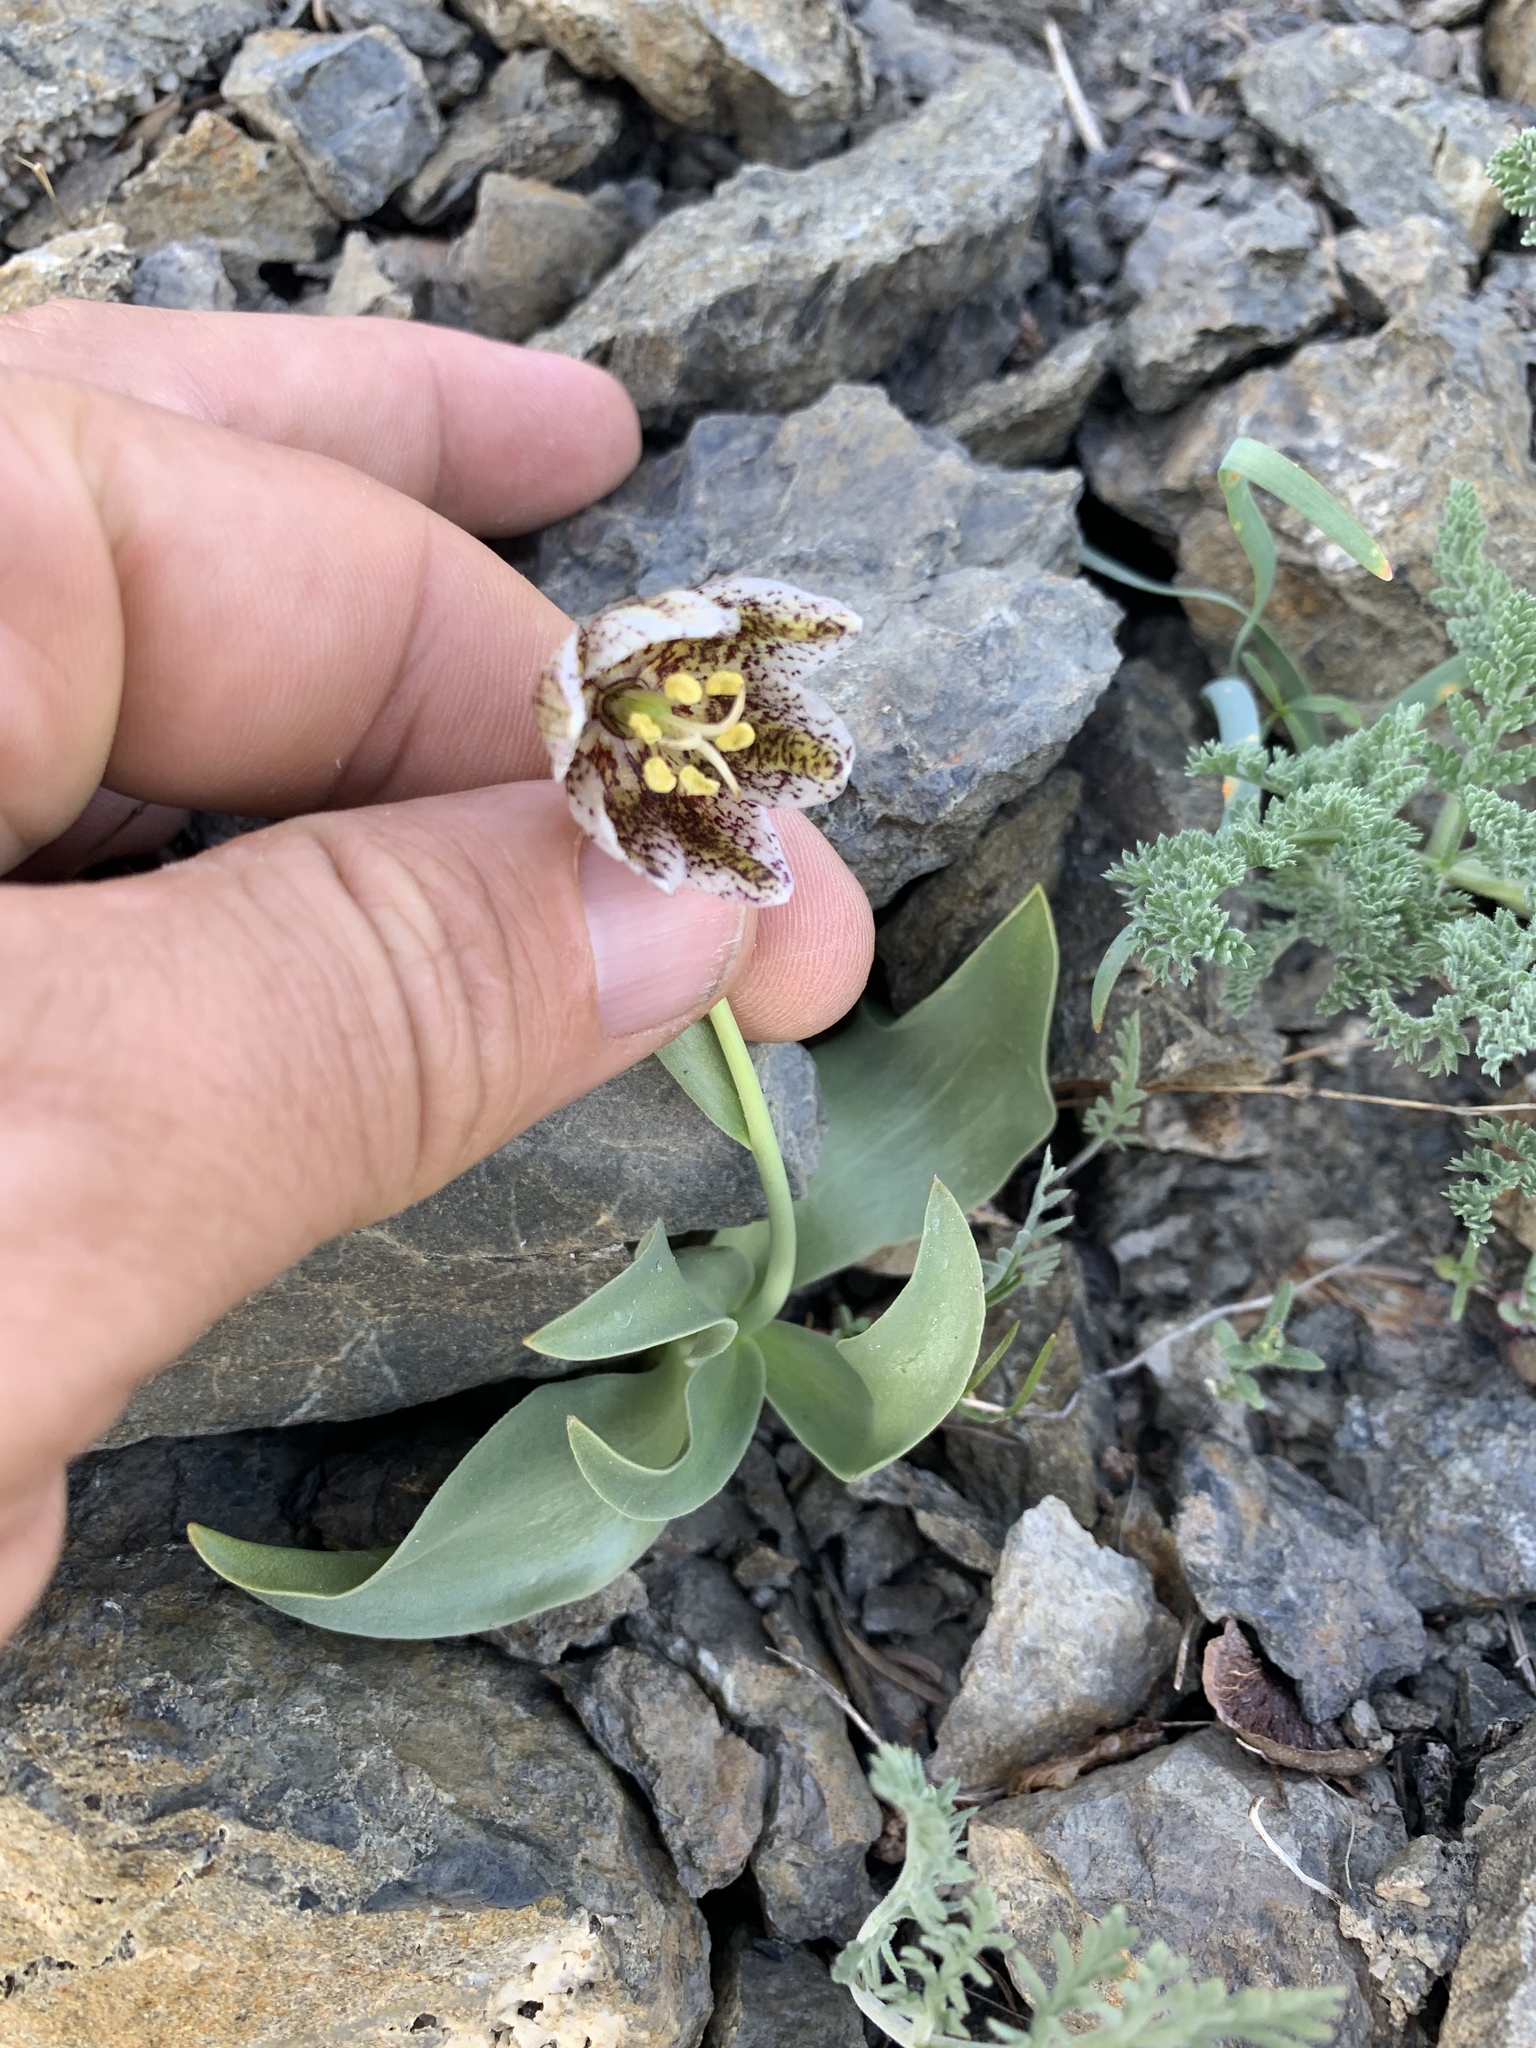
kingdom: Plantae
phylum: Tracheophyta
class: Liliopsida
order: Liliales
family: Liliaceae
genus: Fritillaria
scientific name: Fritillaria purdyi
